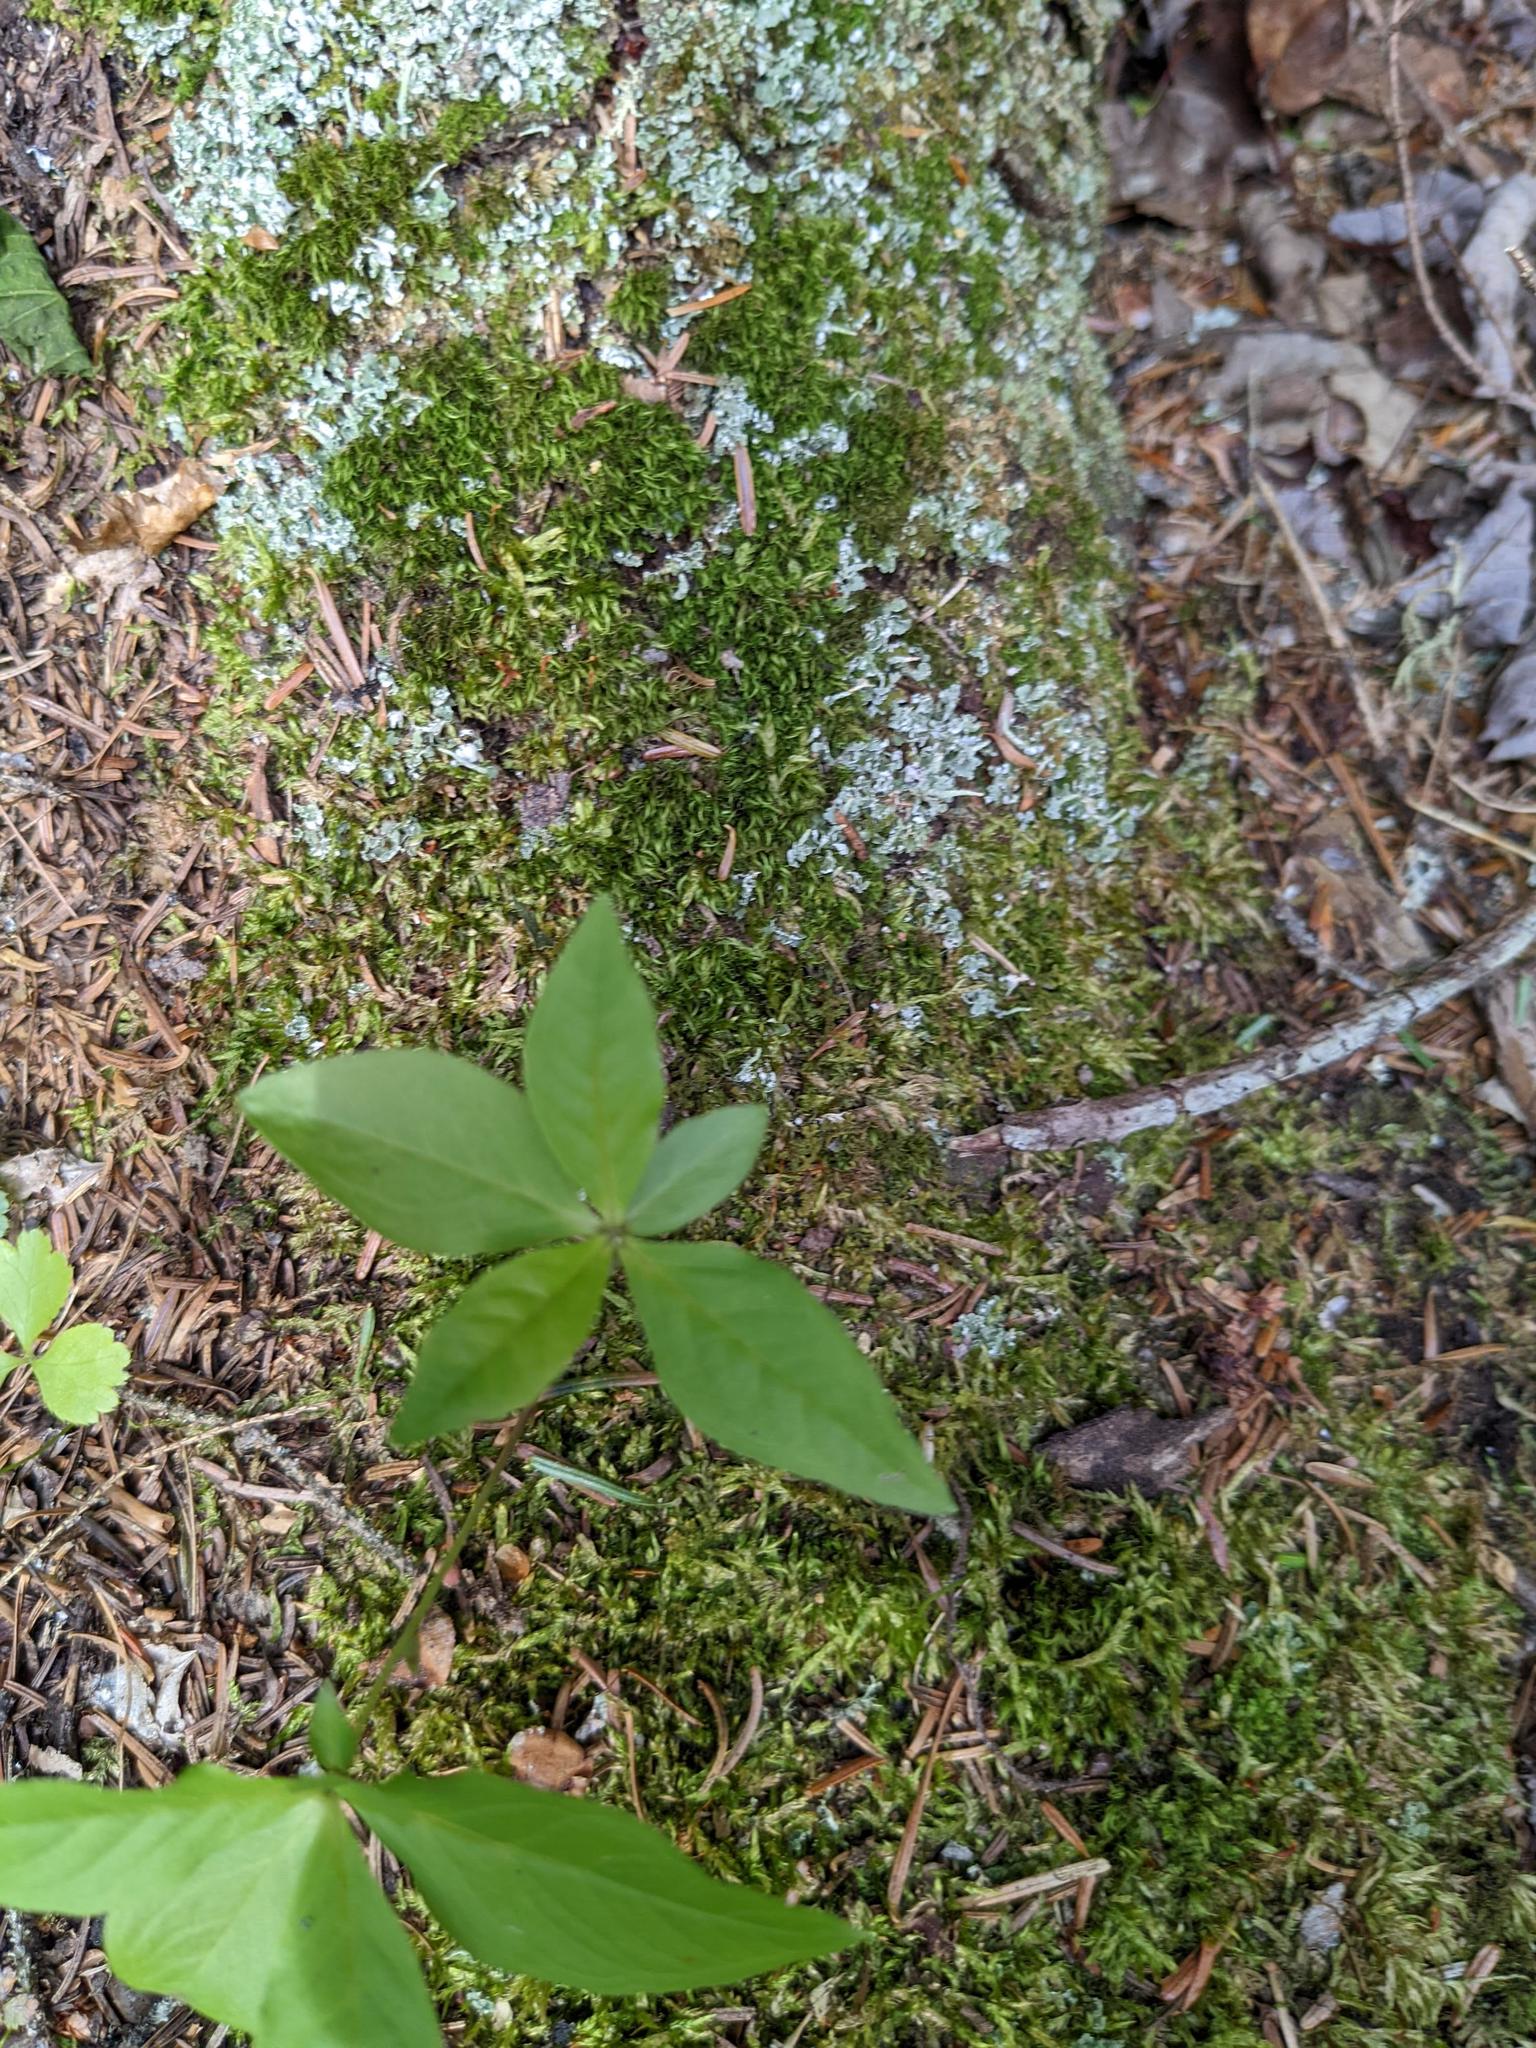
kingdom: Plantae
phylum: Tracheophyta
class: Magnoliopsida
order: Ericales
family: Primulaceae
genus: Lysimachia
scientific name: Lysimachia borealis
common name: American starflower
